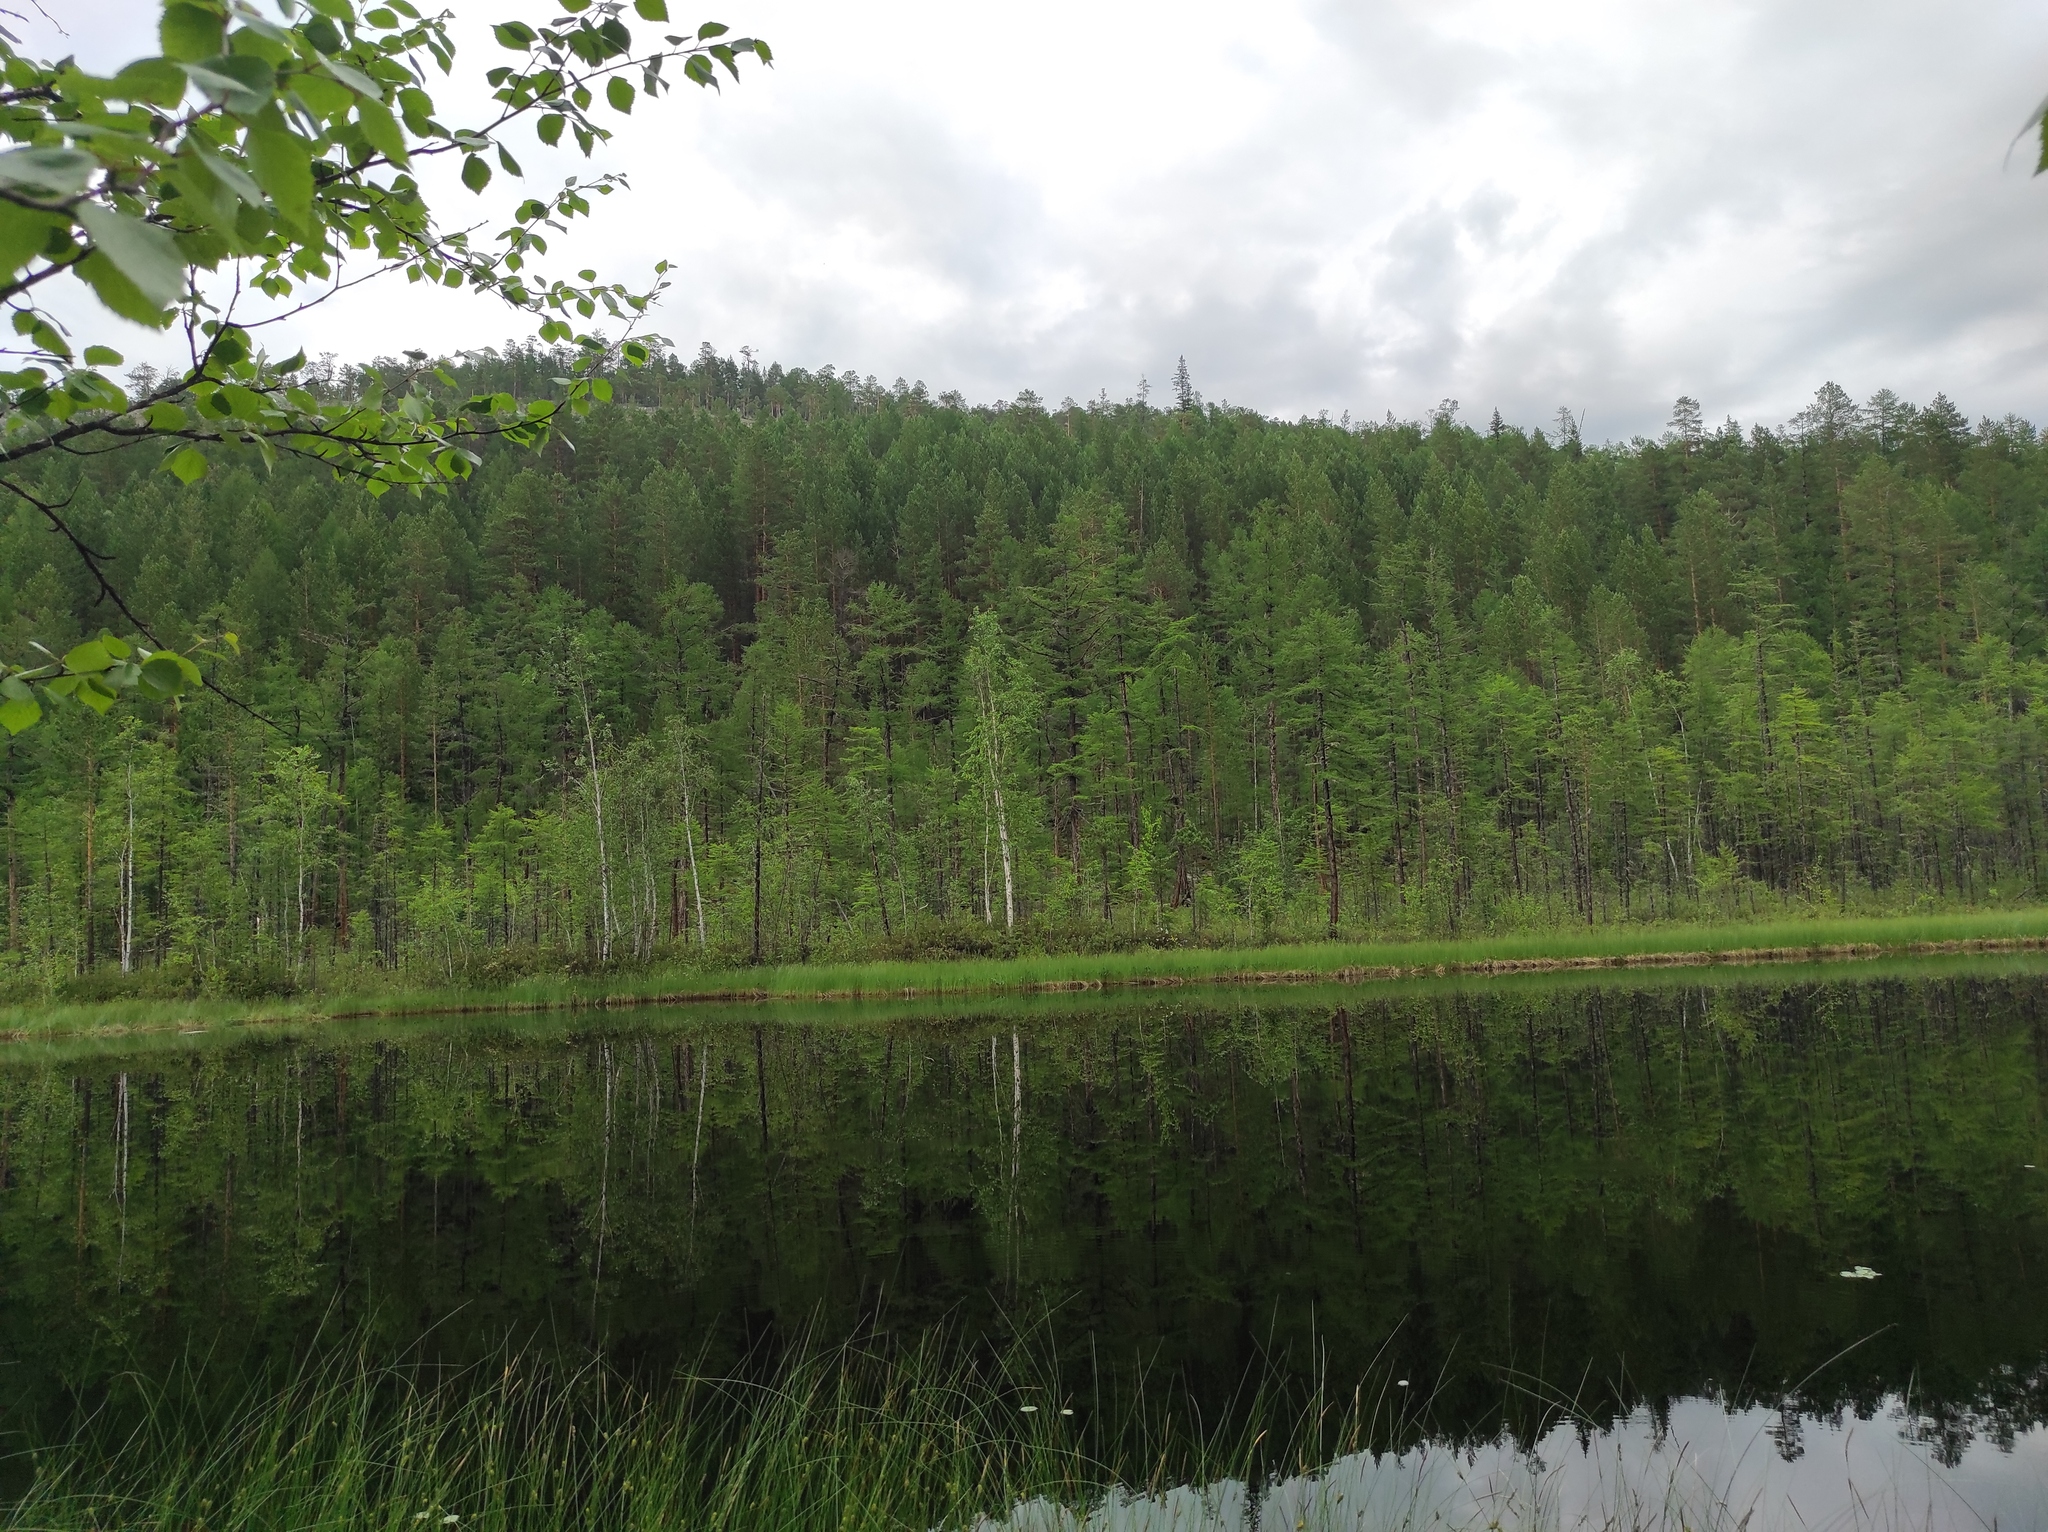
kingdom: Plantae
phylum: Tracheophyta
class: Pinopsida
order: Pinales
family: Pinaceae
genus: Pinus
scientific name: Pinus sylvestris
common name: Scots pine
